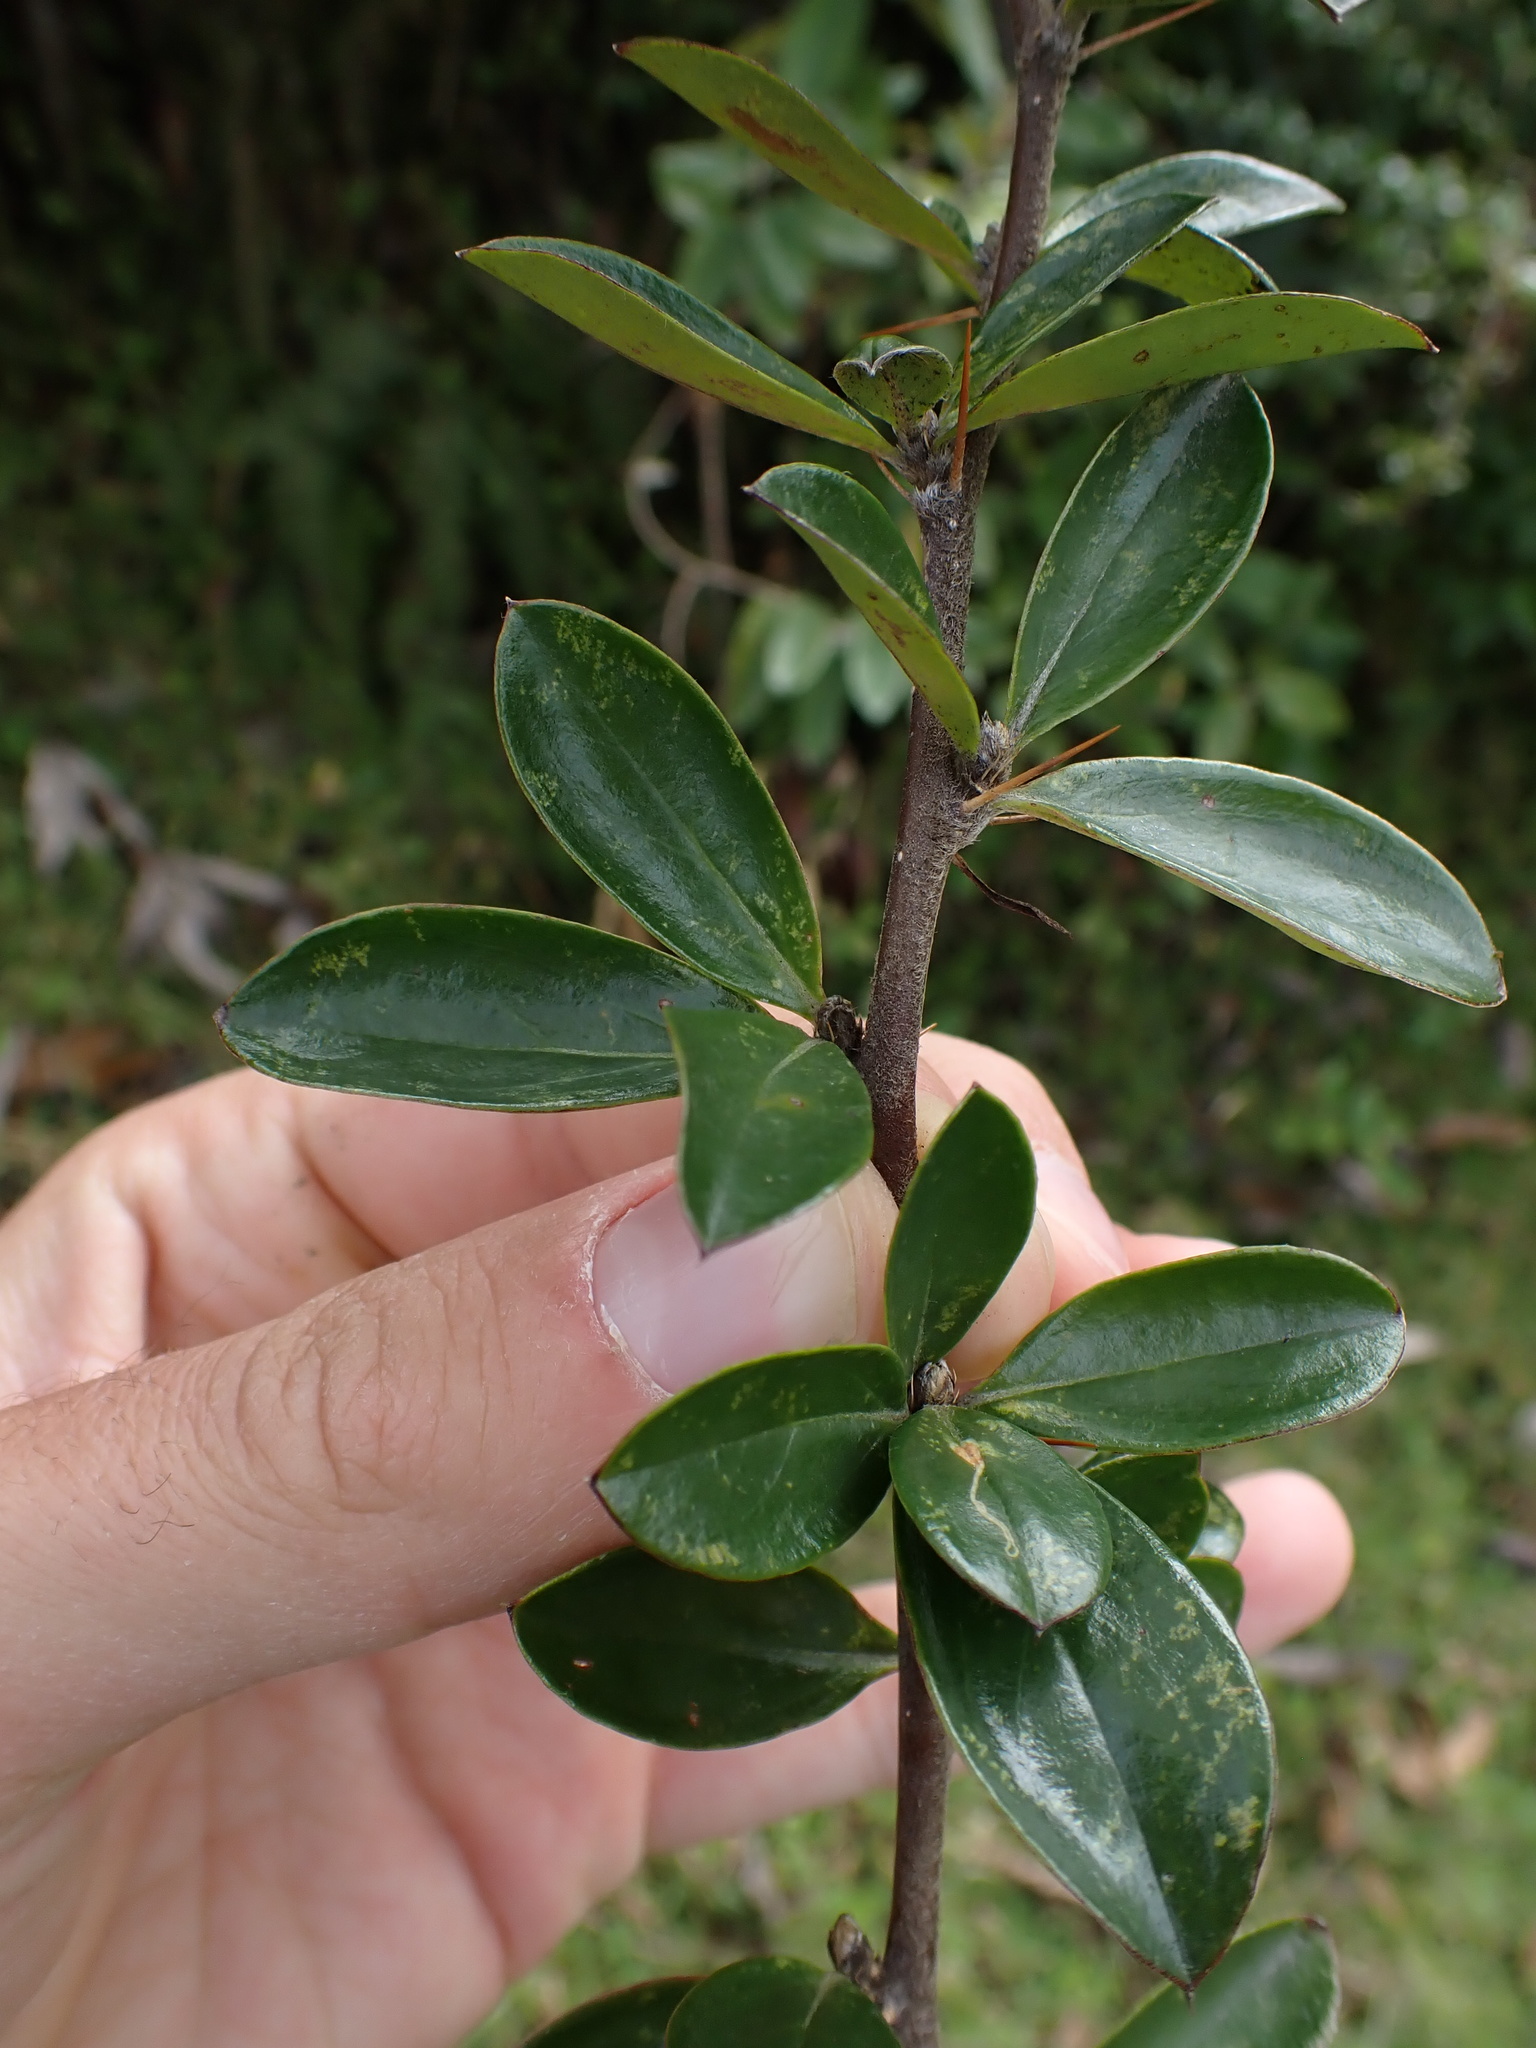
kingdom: Plantae
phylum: Tracheophyta
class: Magnoliopsida
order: Asterales
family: Asteraceae
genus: Barnadesia
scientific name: Barnadesia arborea
